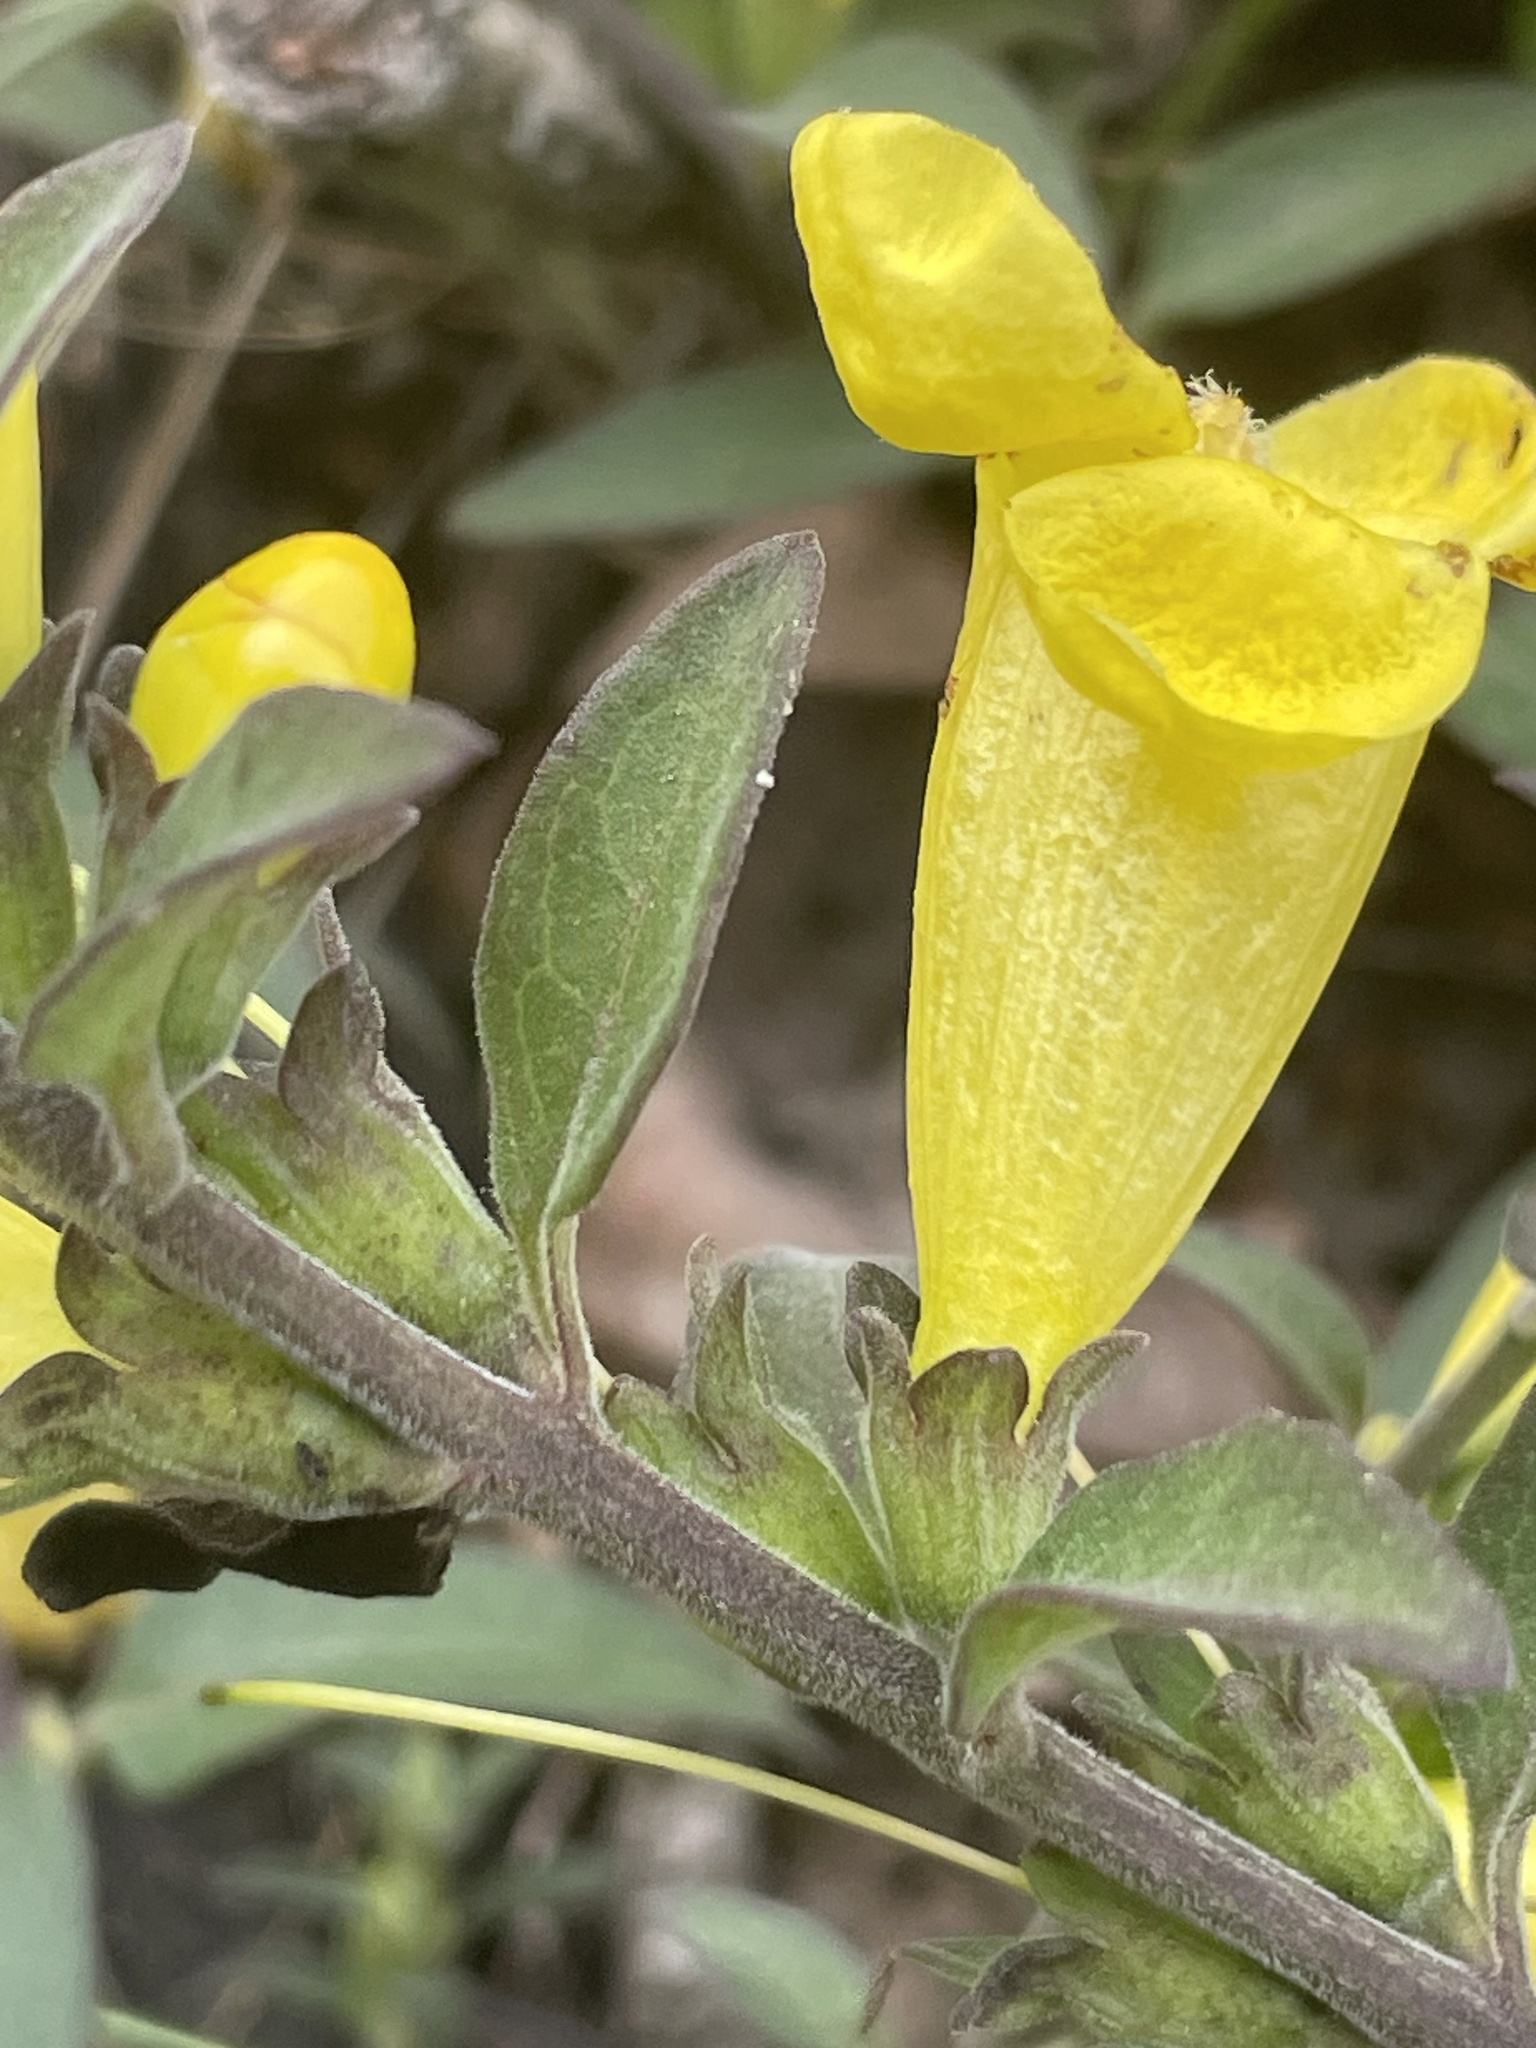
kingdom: Plantae
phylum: Tracheophyta
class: Magnoliopsida
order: Lamiales
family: Orobanchaceae
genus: Aureolaria
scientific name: Aureolaria virginica
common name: Downy false foxglove
